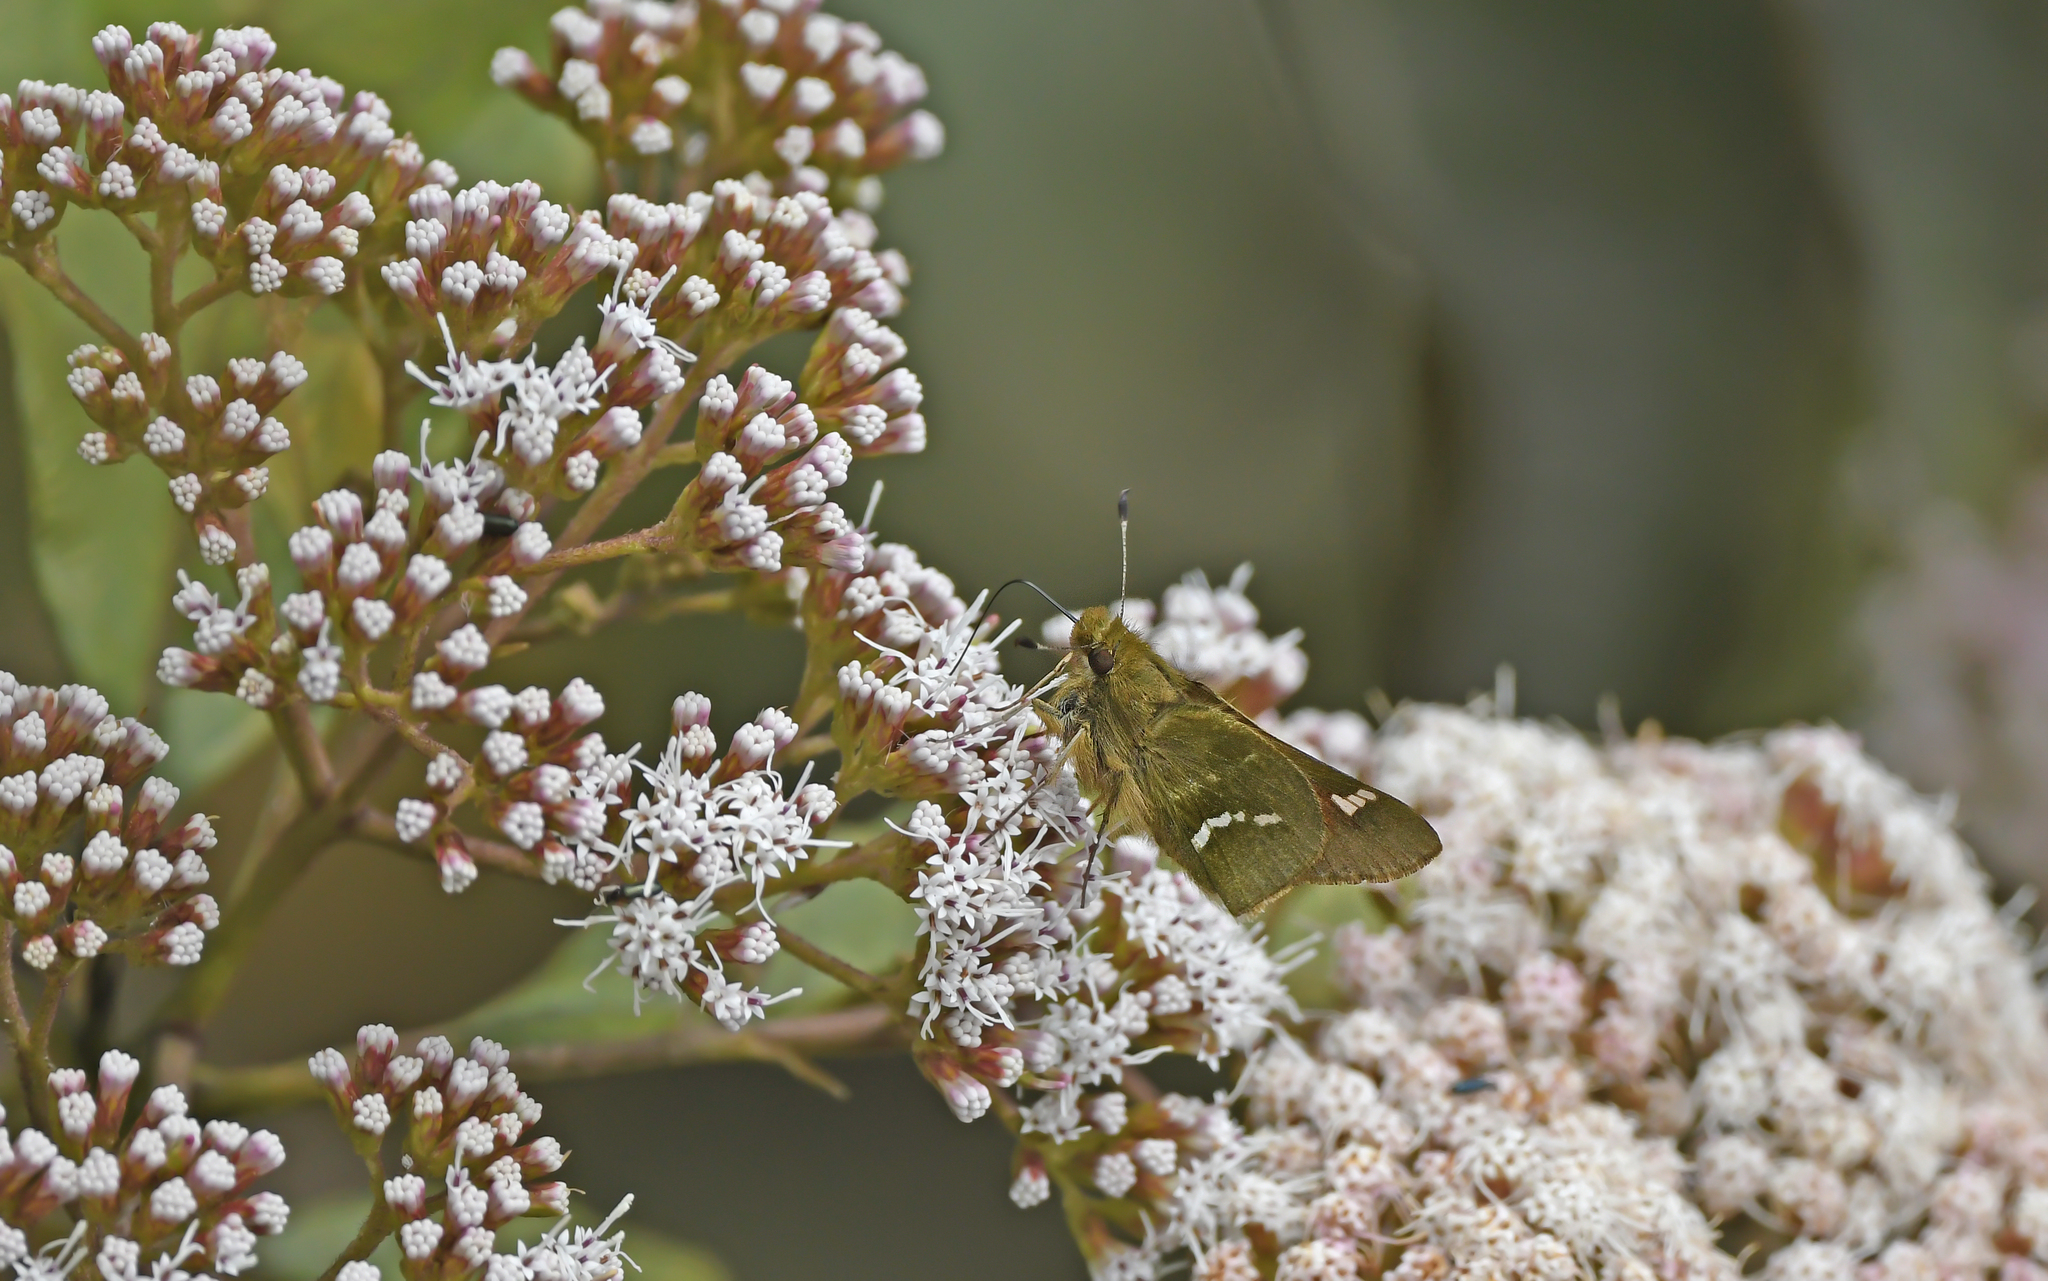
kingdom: Animalia
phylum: Arthropoda
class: Insecta
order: Lepidoptera
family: Hesperiidae
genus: Serdis
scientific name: Serdis viridicans
